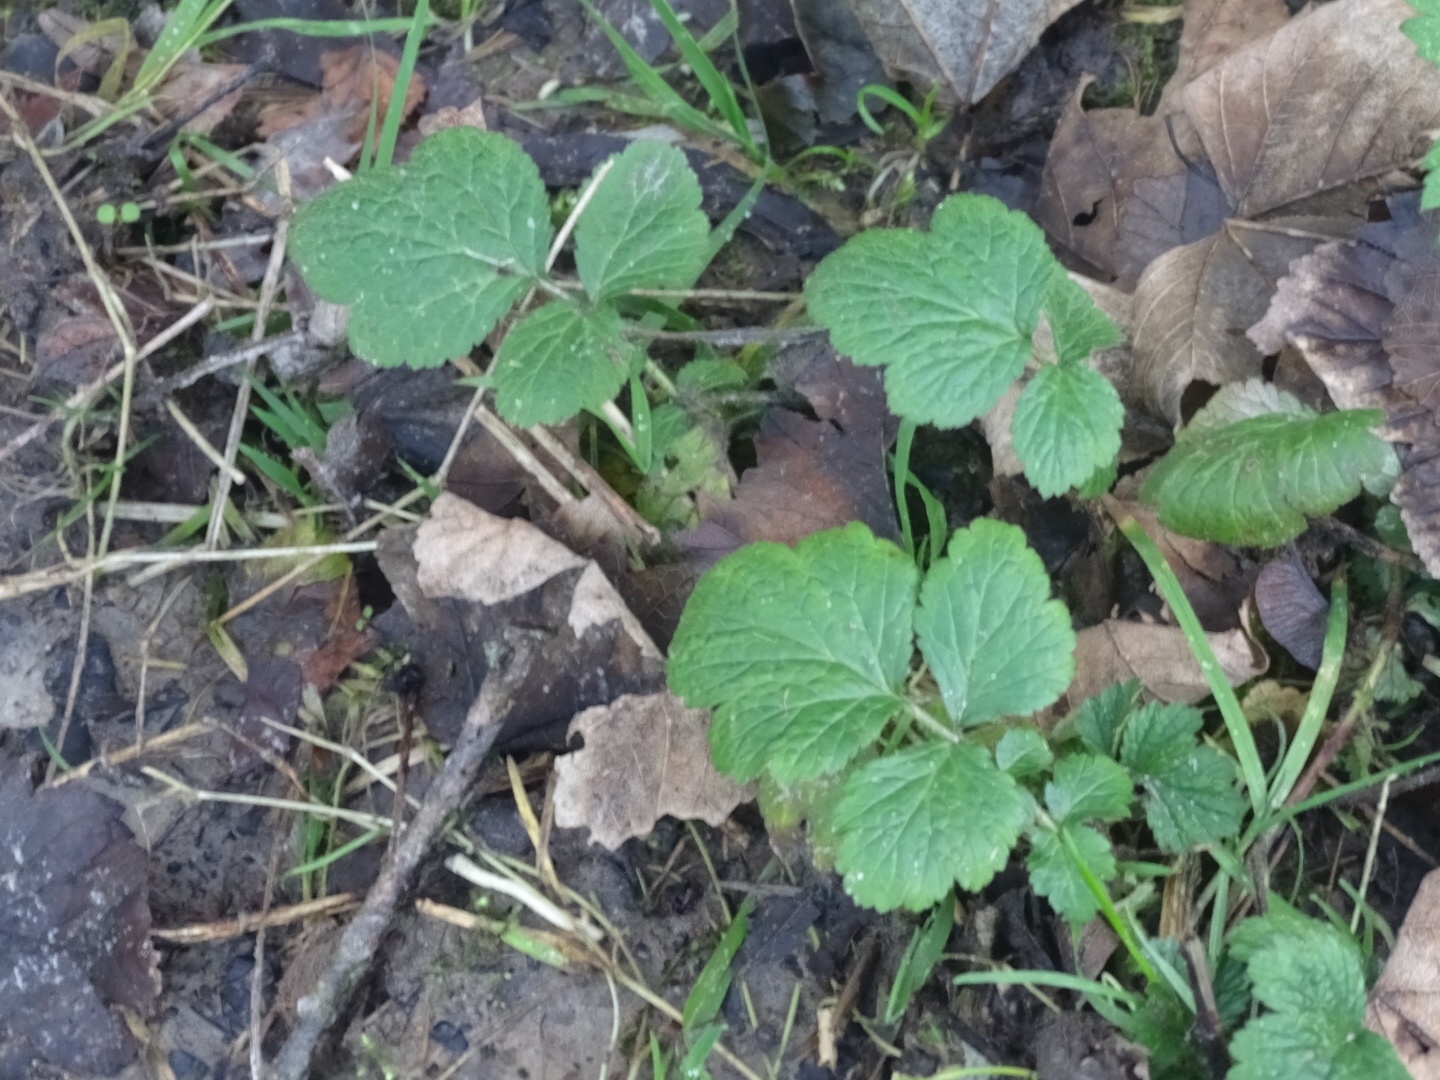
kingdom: Plantae
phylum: Tracheophyta
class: Magnoliopsida
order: Rosales
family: Rosaceae
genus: Geum
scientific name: Geum urbanum
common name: Wood avens
